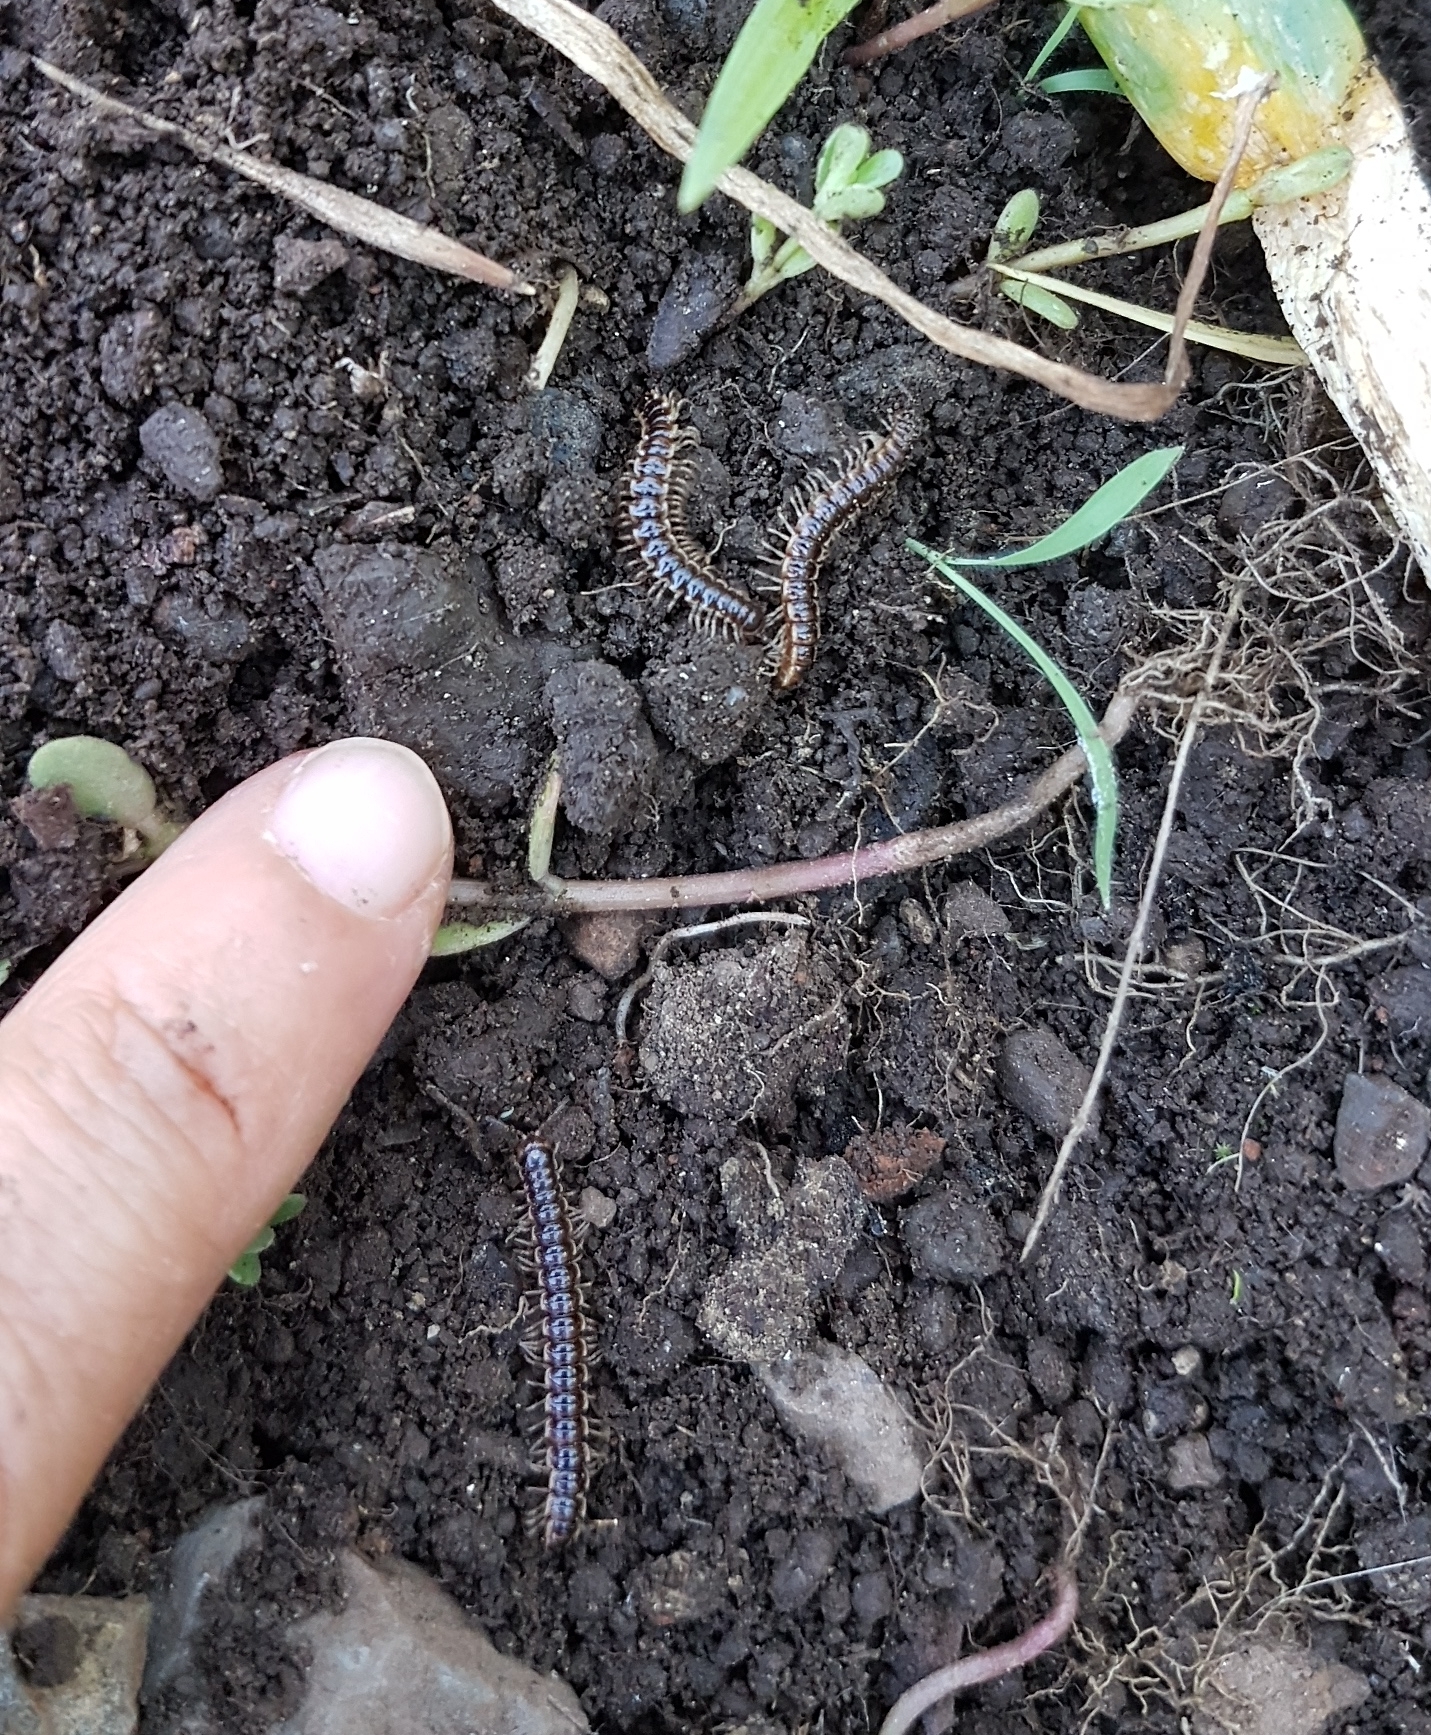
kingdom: Animalia
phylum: Arthropoda
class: Diplopoda
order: Polydesmida
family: Paradoxosomatidae
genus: Oxidus
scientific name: Oxidus gracilis
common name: Greenhouse millipede
